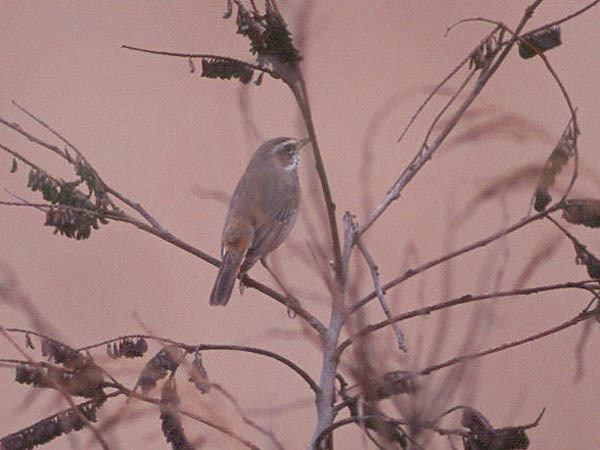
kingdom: Animalia
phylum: Chordata
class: Aves
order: Passeriformes
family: Muscicapidae
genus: Luscinia
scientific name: Luscinia svecica
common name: Bluethroat
